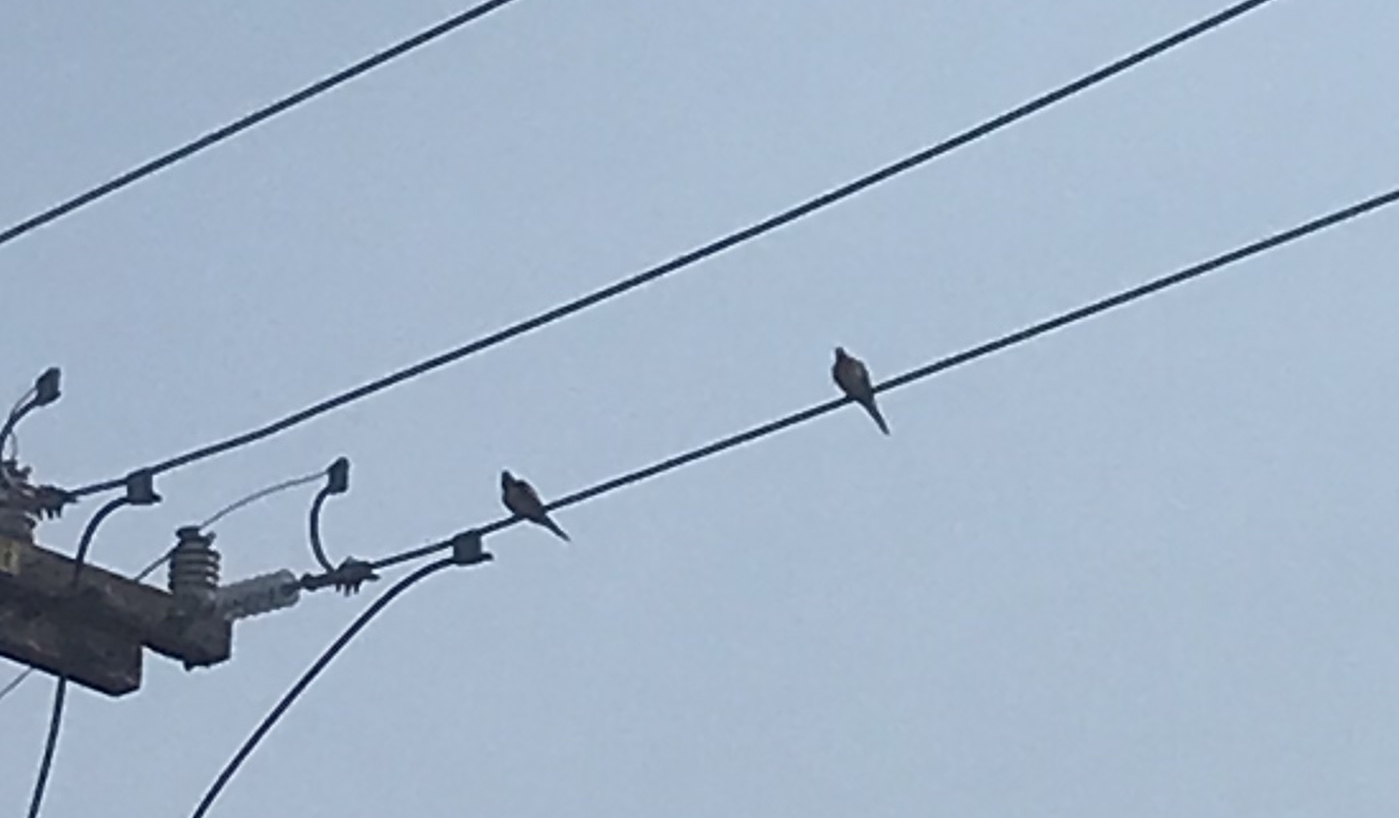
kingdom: Animalia
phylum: Chordata
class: Aves
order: Columbiformes
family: Columbidae
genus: Zenaida
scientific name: Zenaida macroura
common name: Mourning dove
